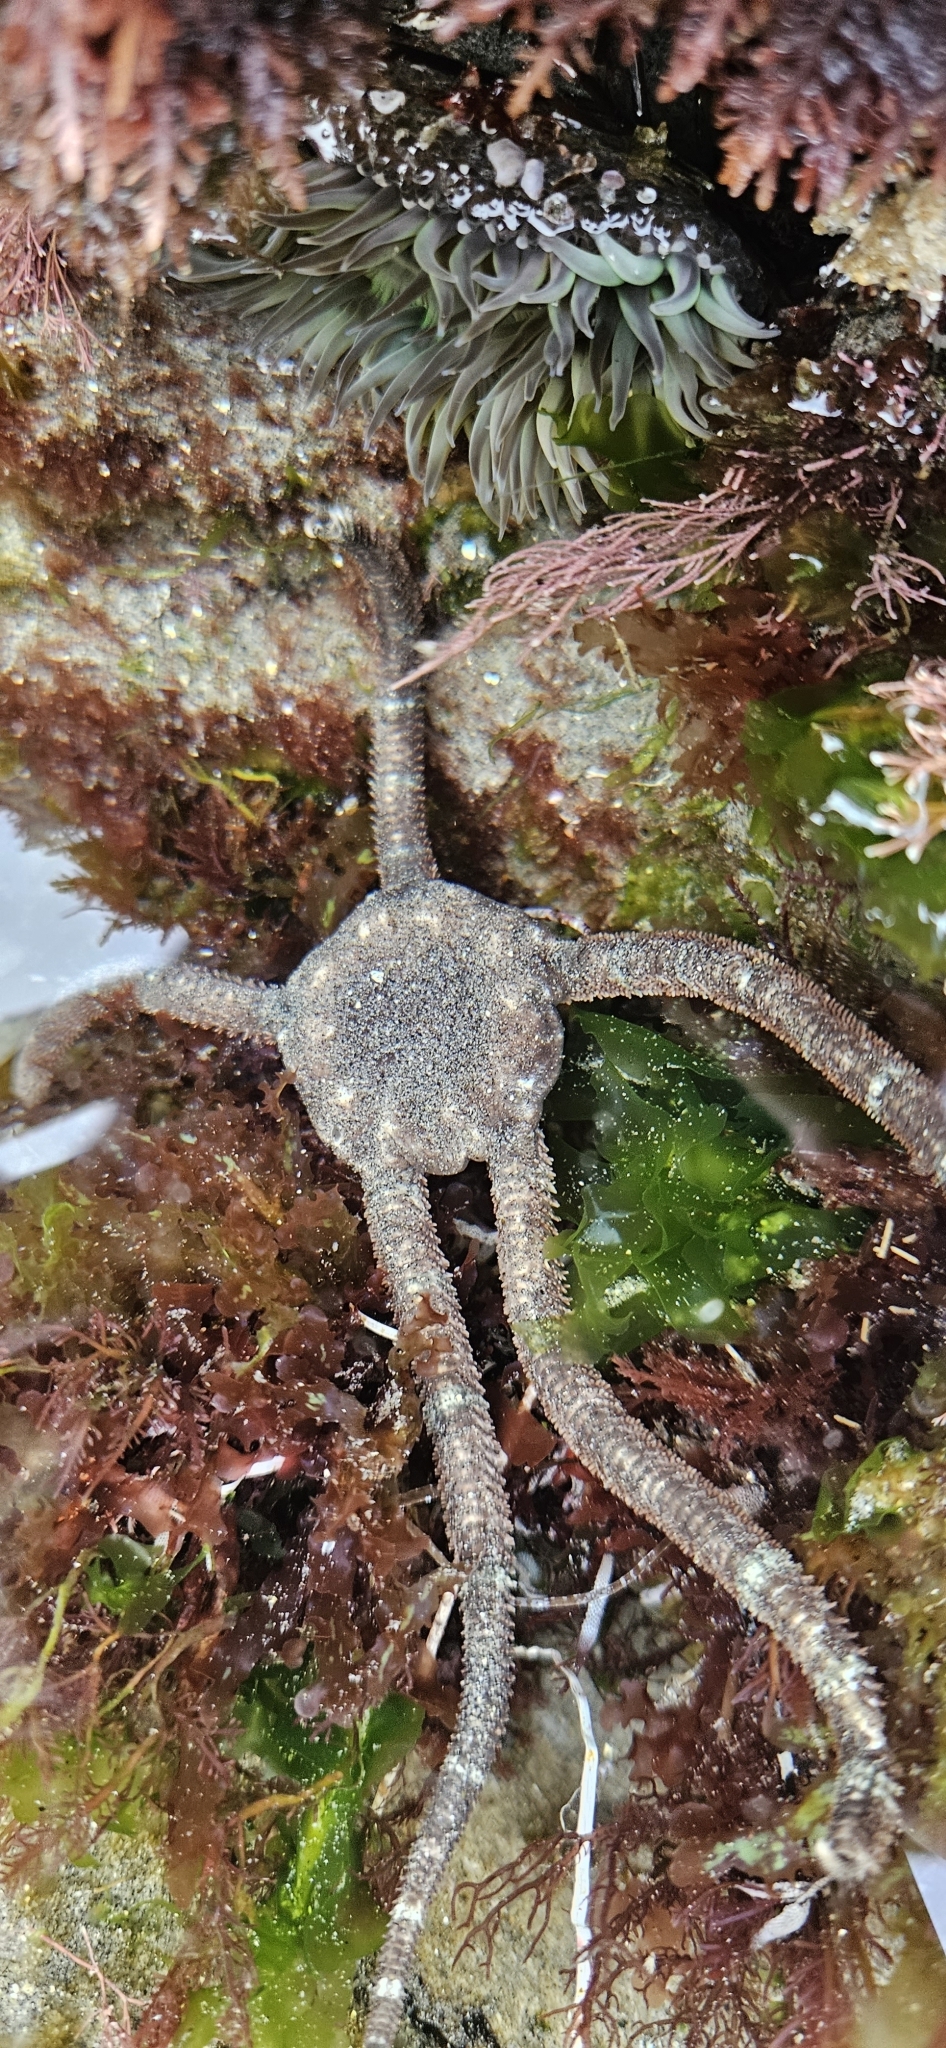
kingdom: Animalia
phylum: Echinodermata
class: Ophiuroidea
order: Ophiacanthida
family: Ophiodermatidae
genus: Ophioderma
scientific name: Ophioderma panamense
